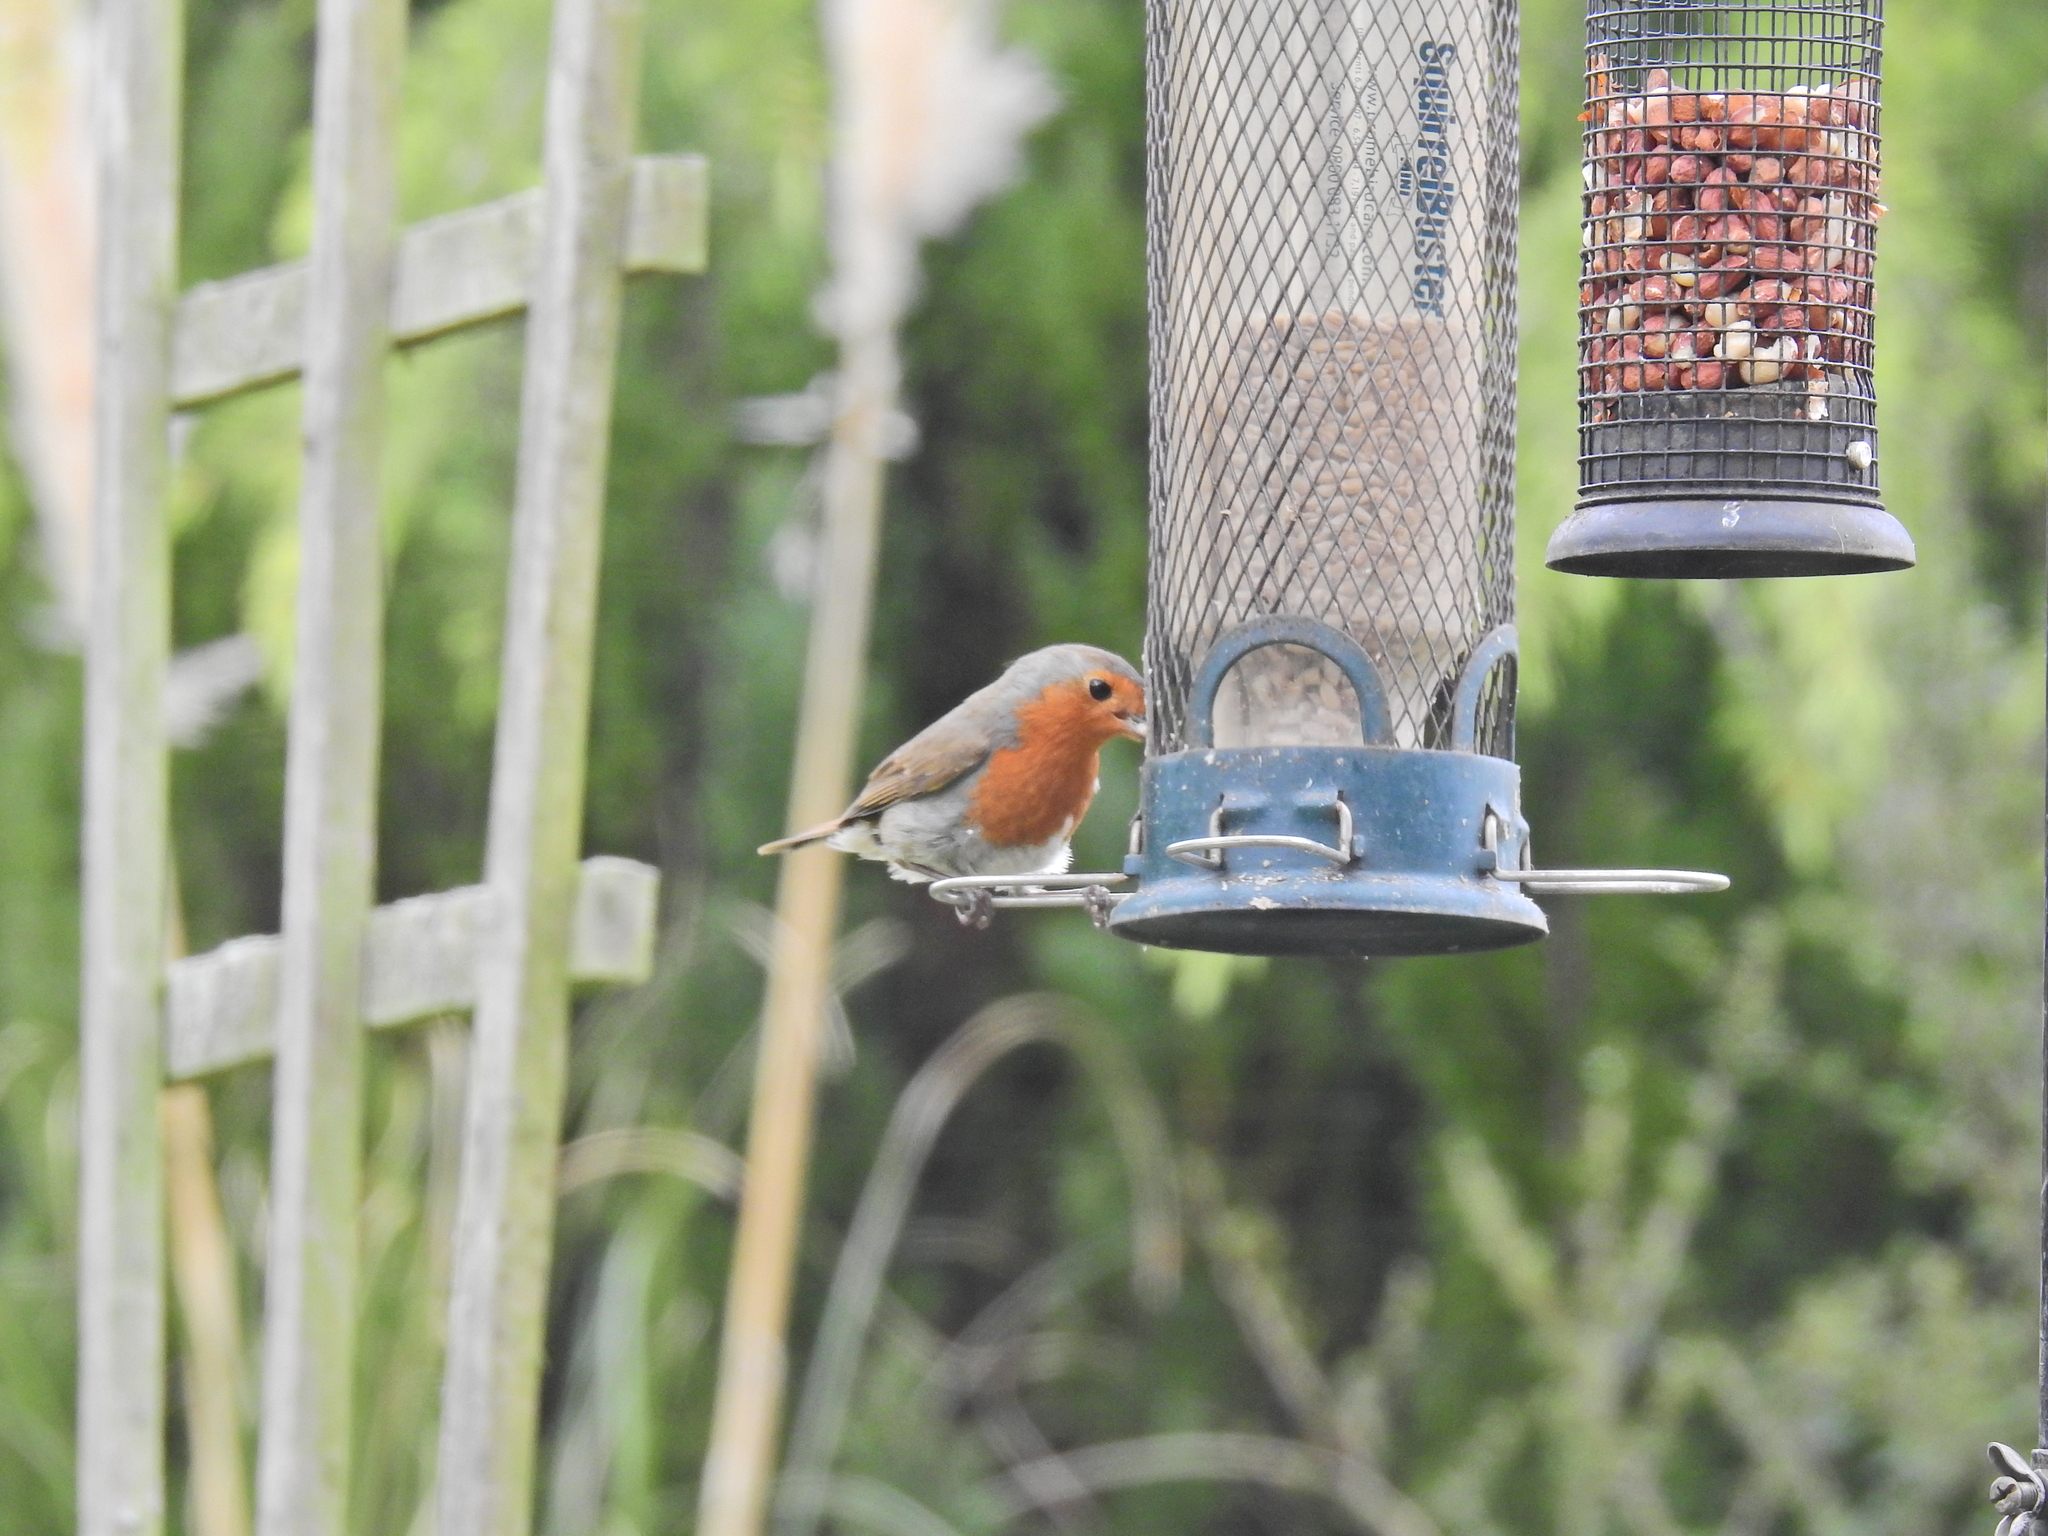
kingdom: Animalia
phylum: Chordata
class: Aves
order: Passeriformes
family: Muscicapidae
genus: Erithacus
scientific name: Erithacus rubecula
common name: European robin
